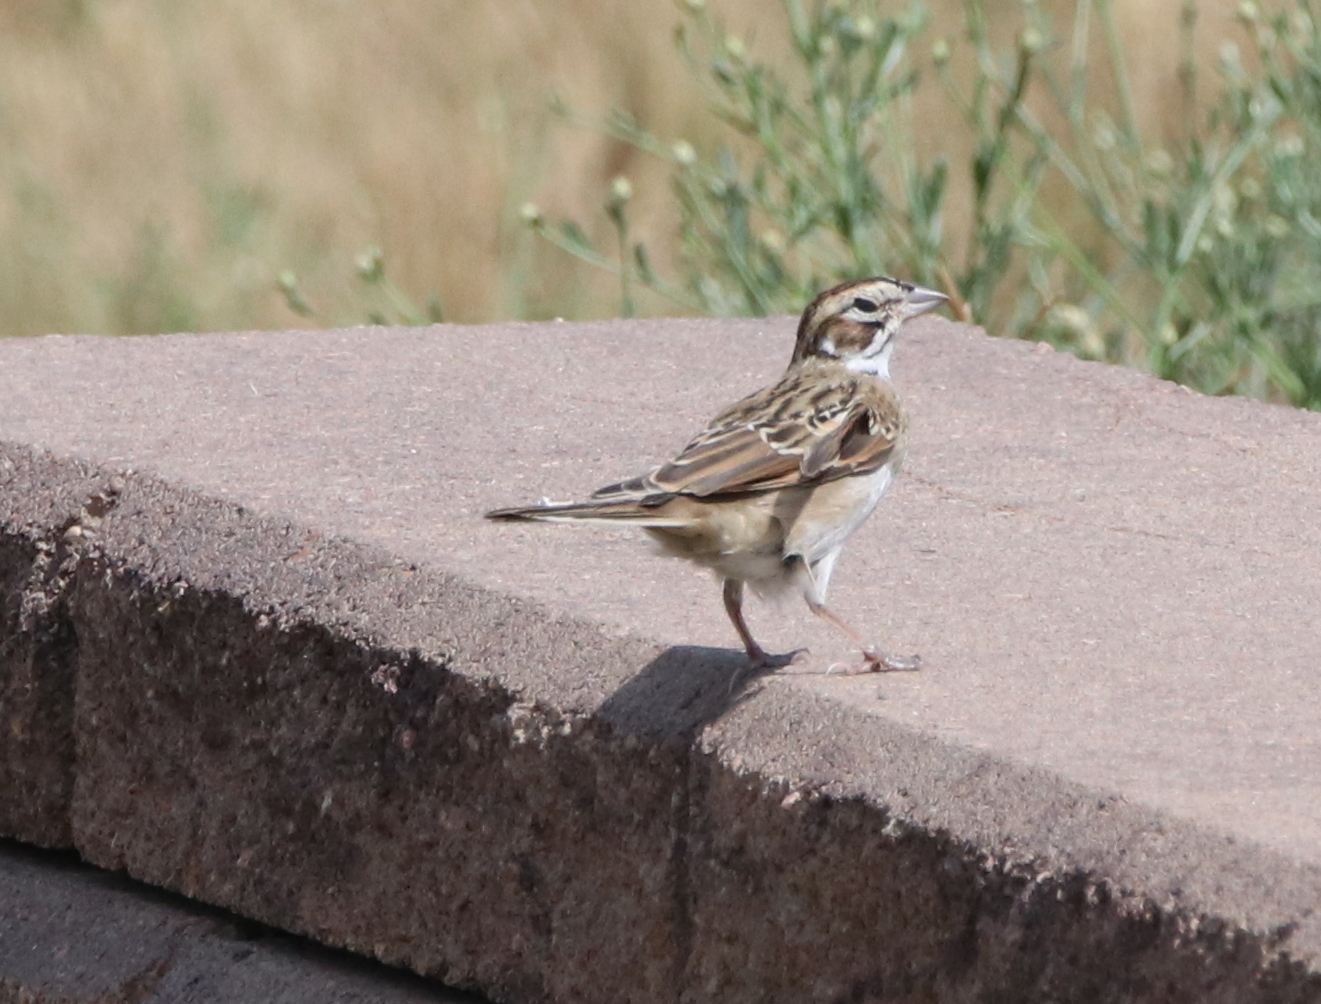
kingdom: Animalia
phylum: Chordata
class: Aves
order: Passeriformes
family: Passerellidae
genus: Chondestes
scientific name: Chondestes grammacus
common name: Lark sparrow
